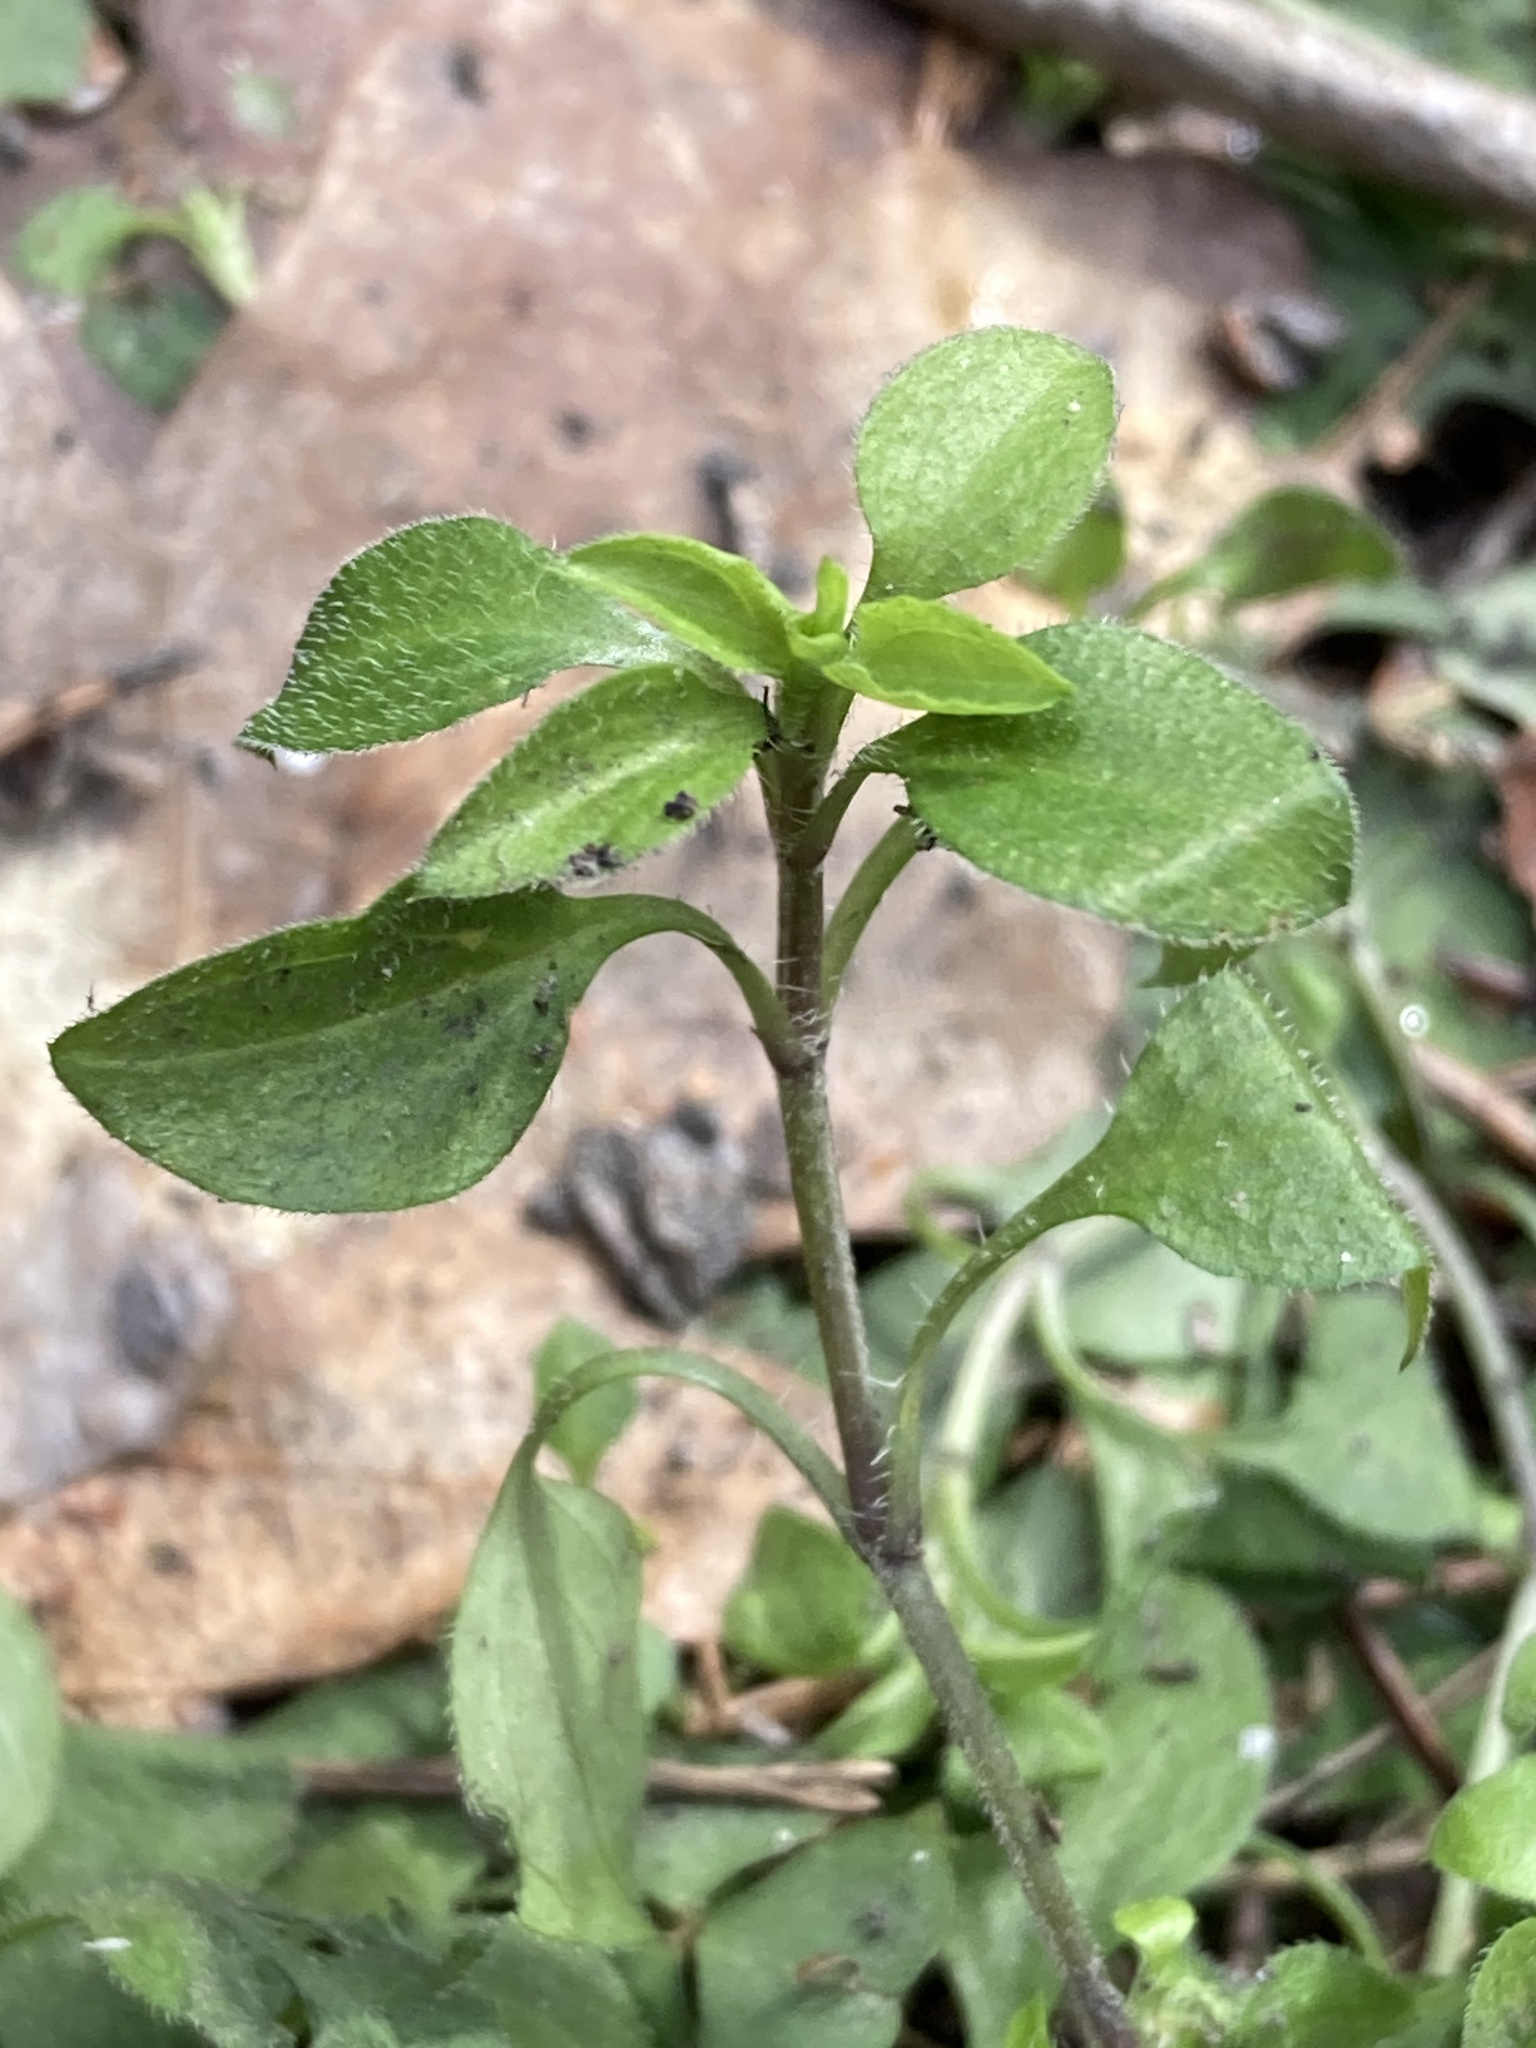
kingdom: Plantae
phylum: Tracheophyta
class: Magnoliopsida
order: Caryophyllales
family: Caryophyllaceae
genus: Moehringia
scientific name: Moehringia trinervia
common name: Three-nerved sandwort
